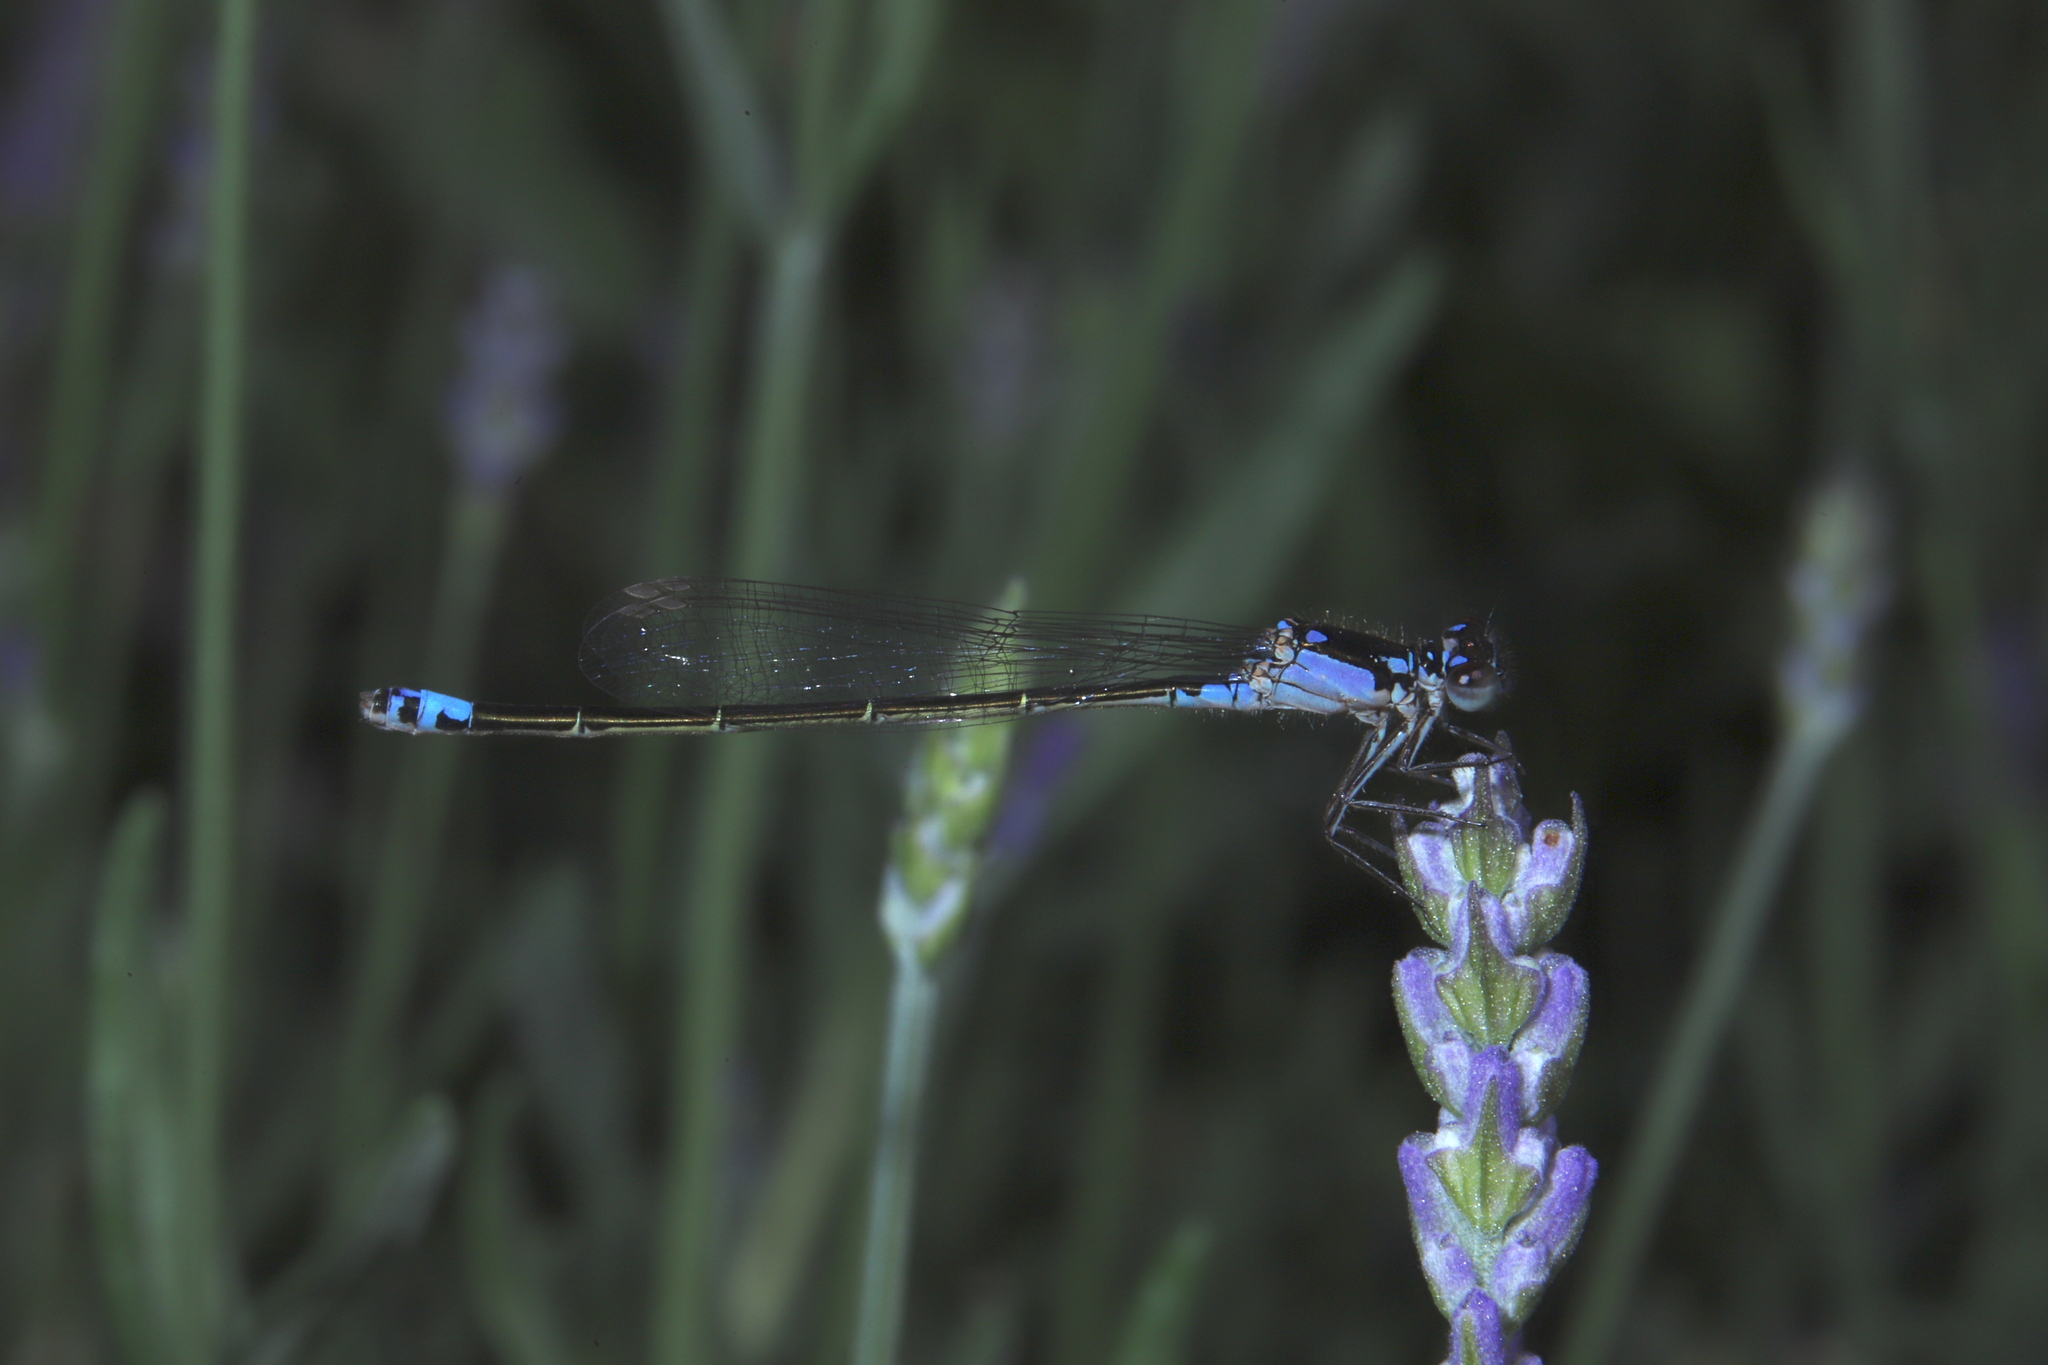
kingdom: Animalia
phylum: Arthropoda
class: Insecta
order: Odonata
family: Coenagrionidae
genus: Ischnura
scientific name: Ischnura damula
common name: Plains forktail
